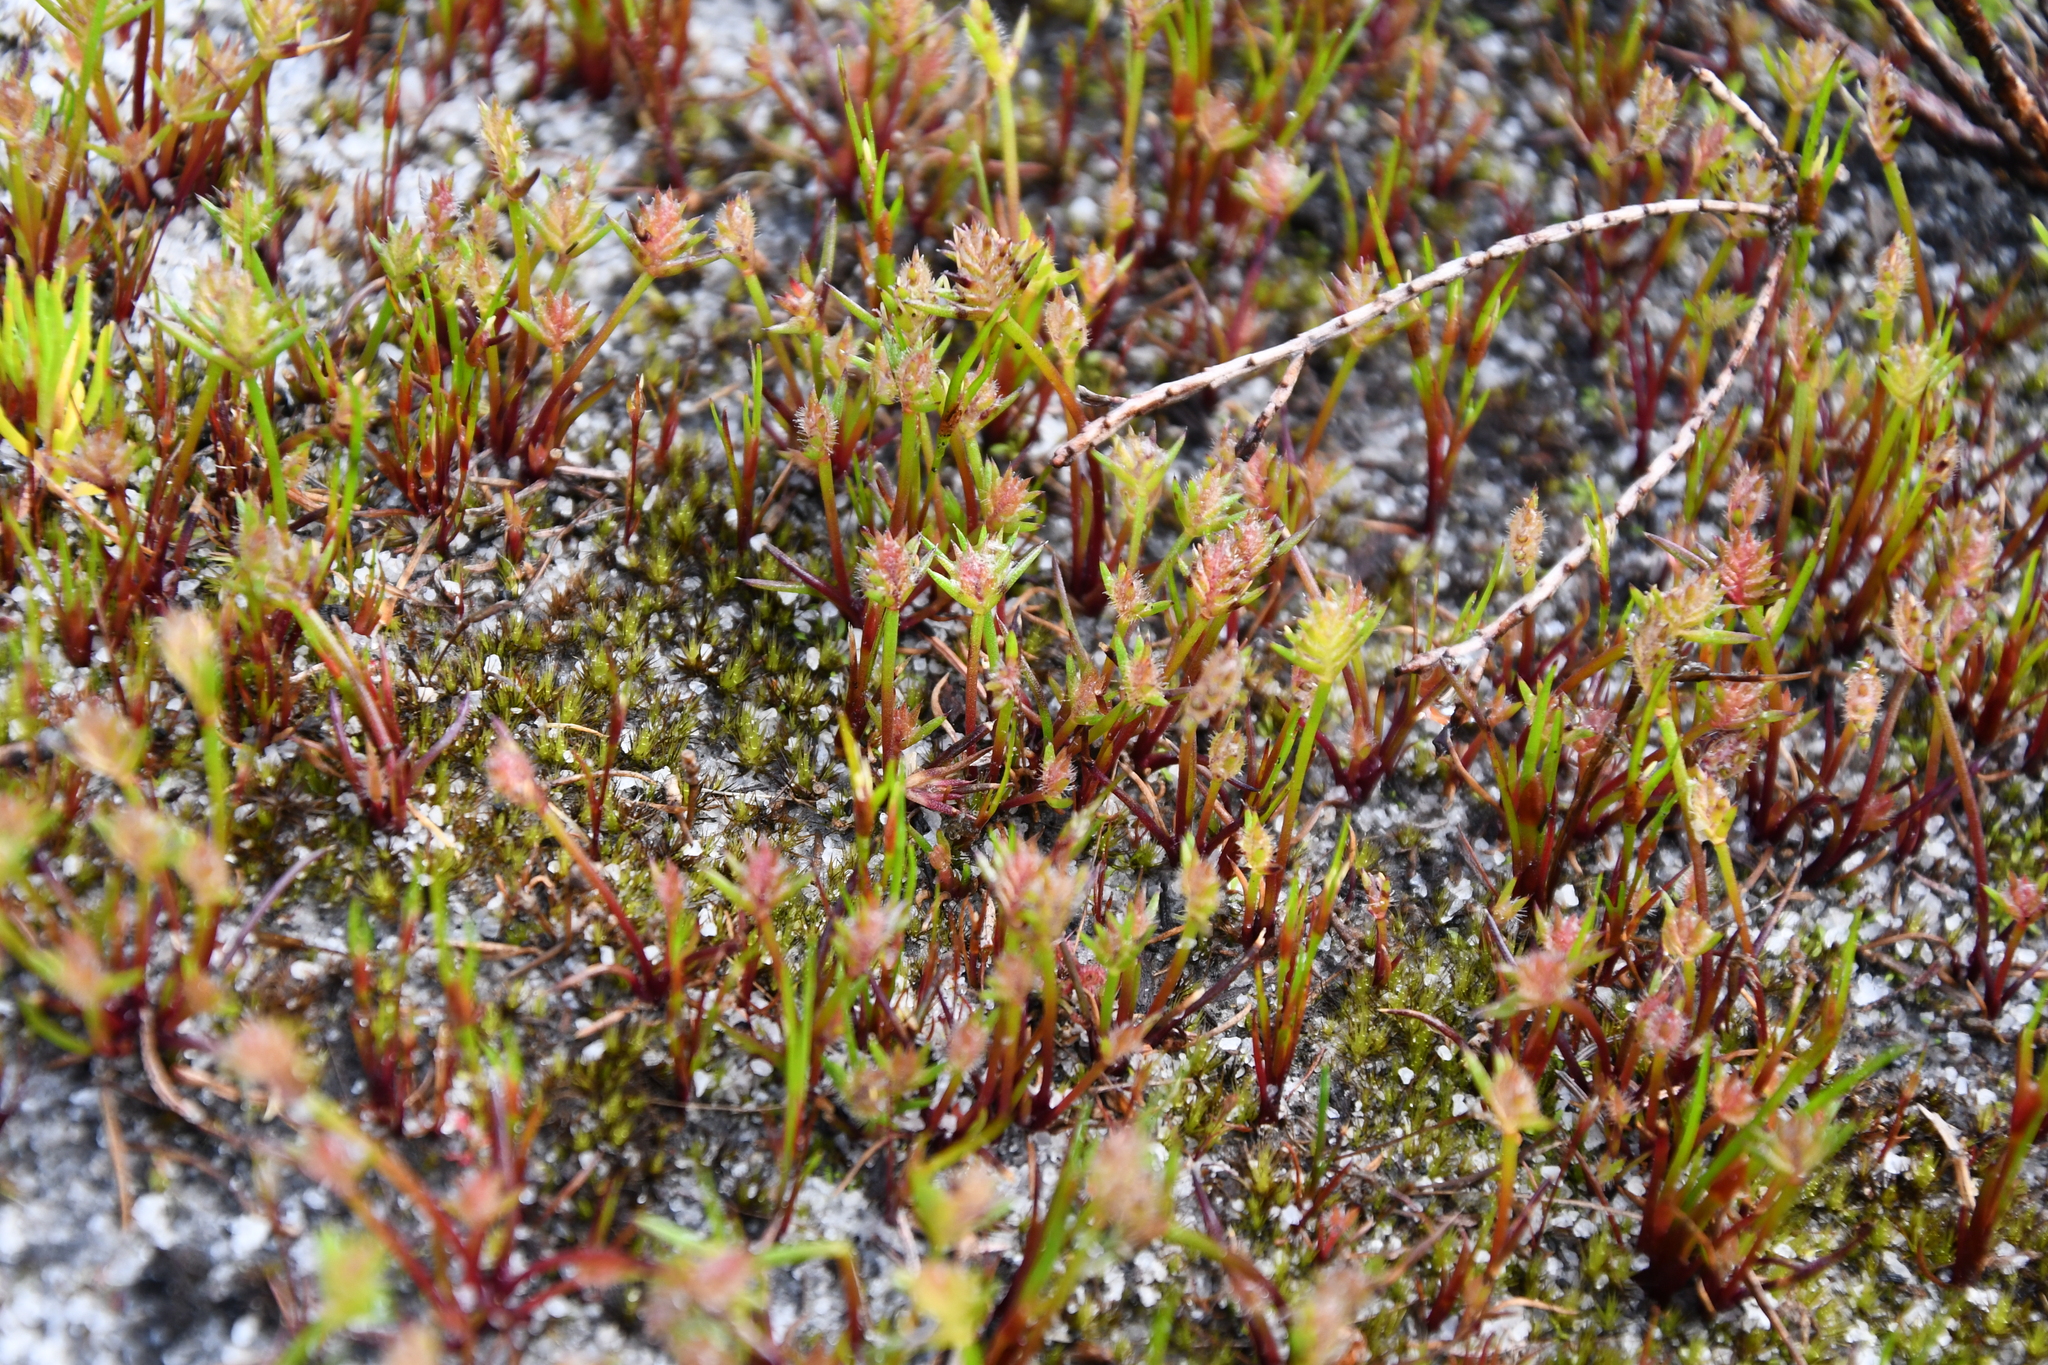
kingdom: Plantae
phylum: Tracheophyta
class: Liliopsida
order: Poales
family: Restionaceae
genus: Aphelia
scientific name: Aphelia cyperoides
